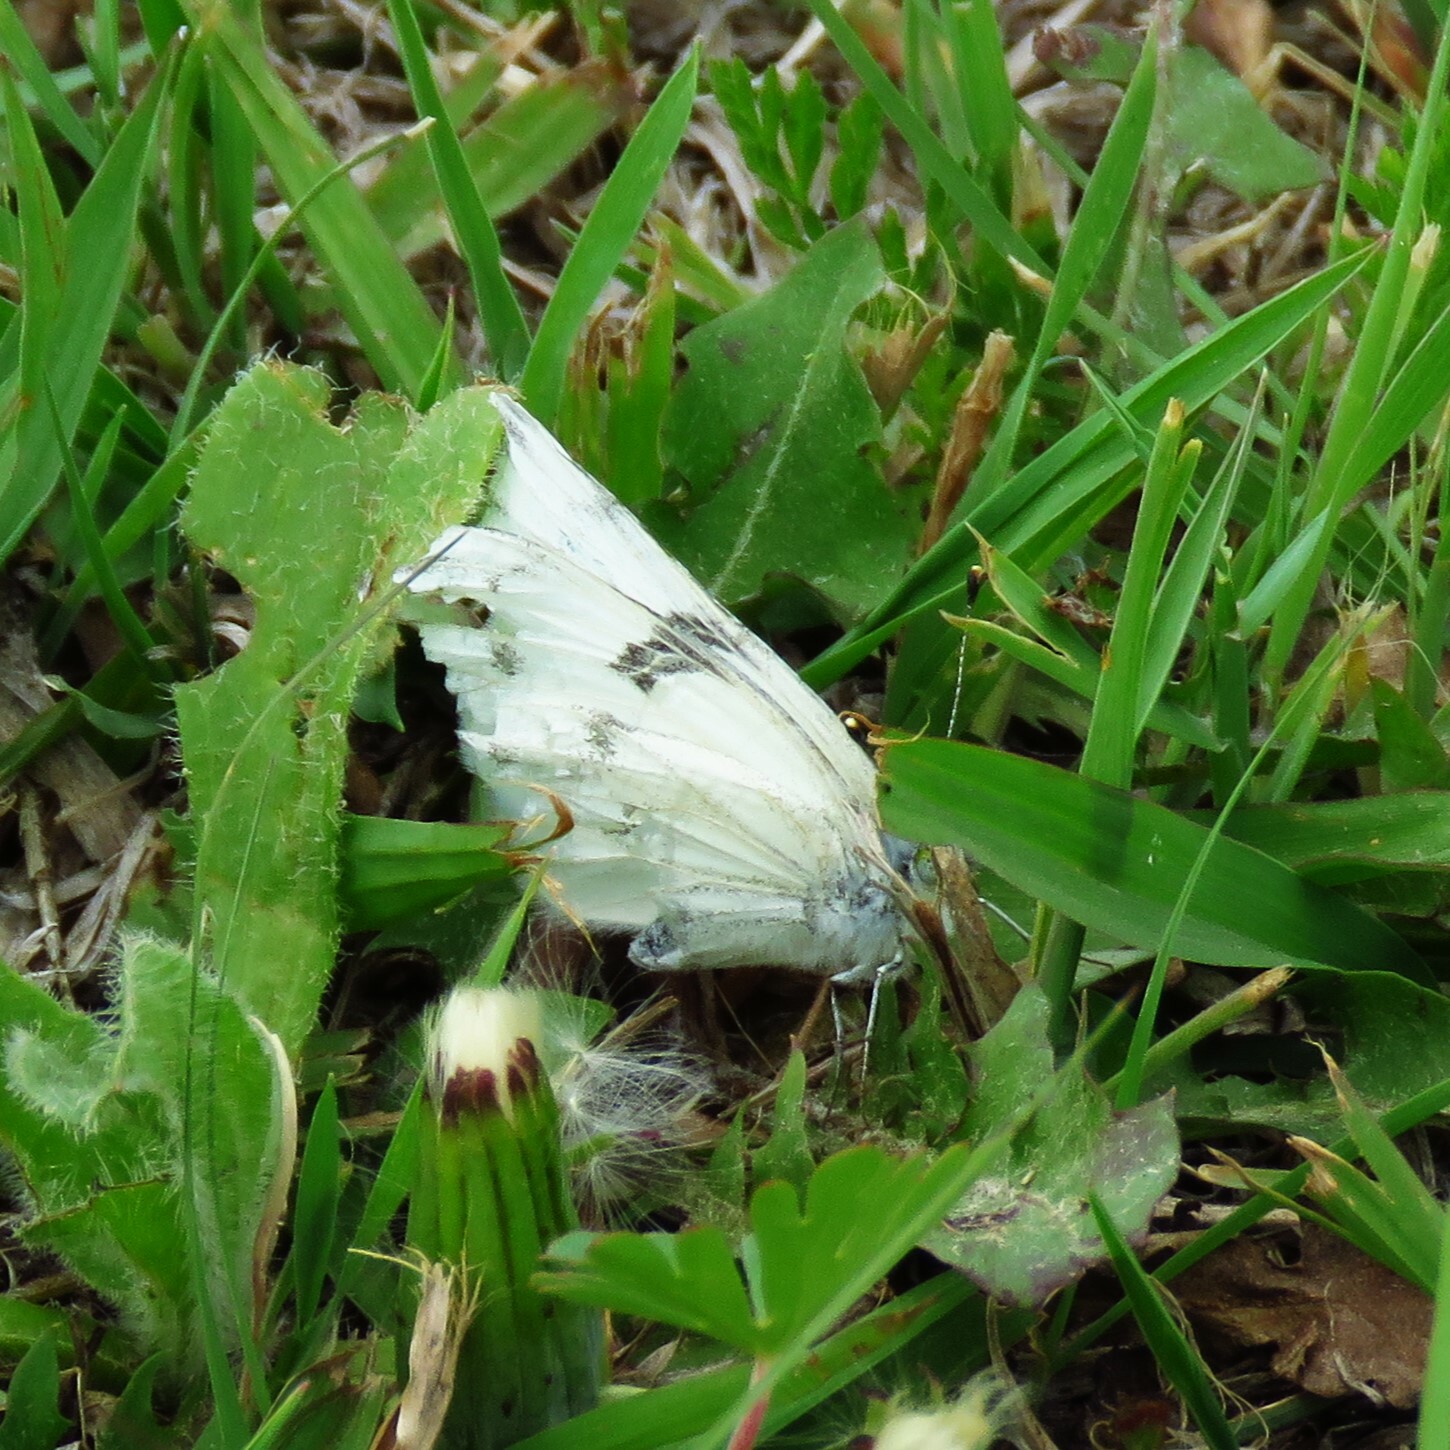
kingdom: Animalia
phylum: Arthropoda
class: Insecta
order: Lepidoptera
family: Pieridae
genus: Pontia
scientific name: Pontia protodice
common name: Checkered white
